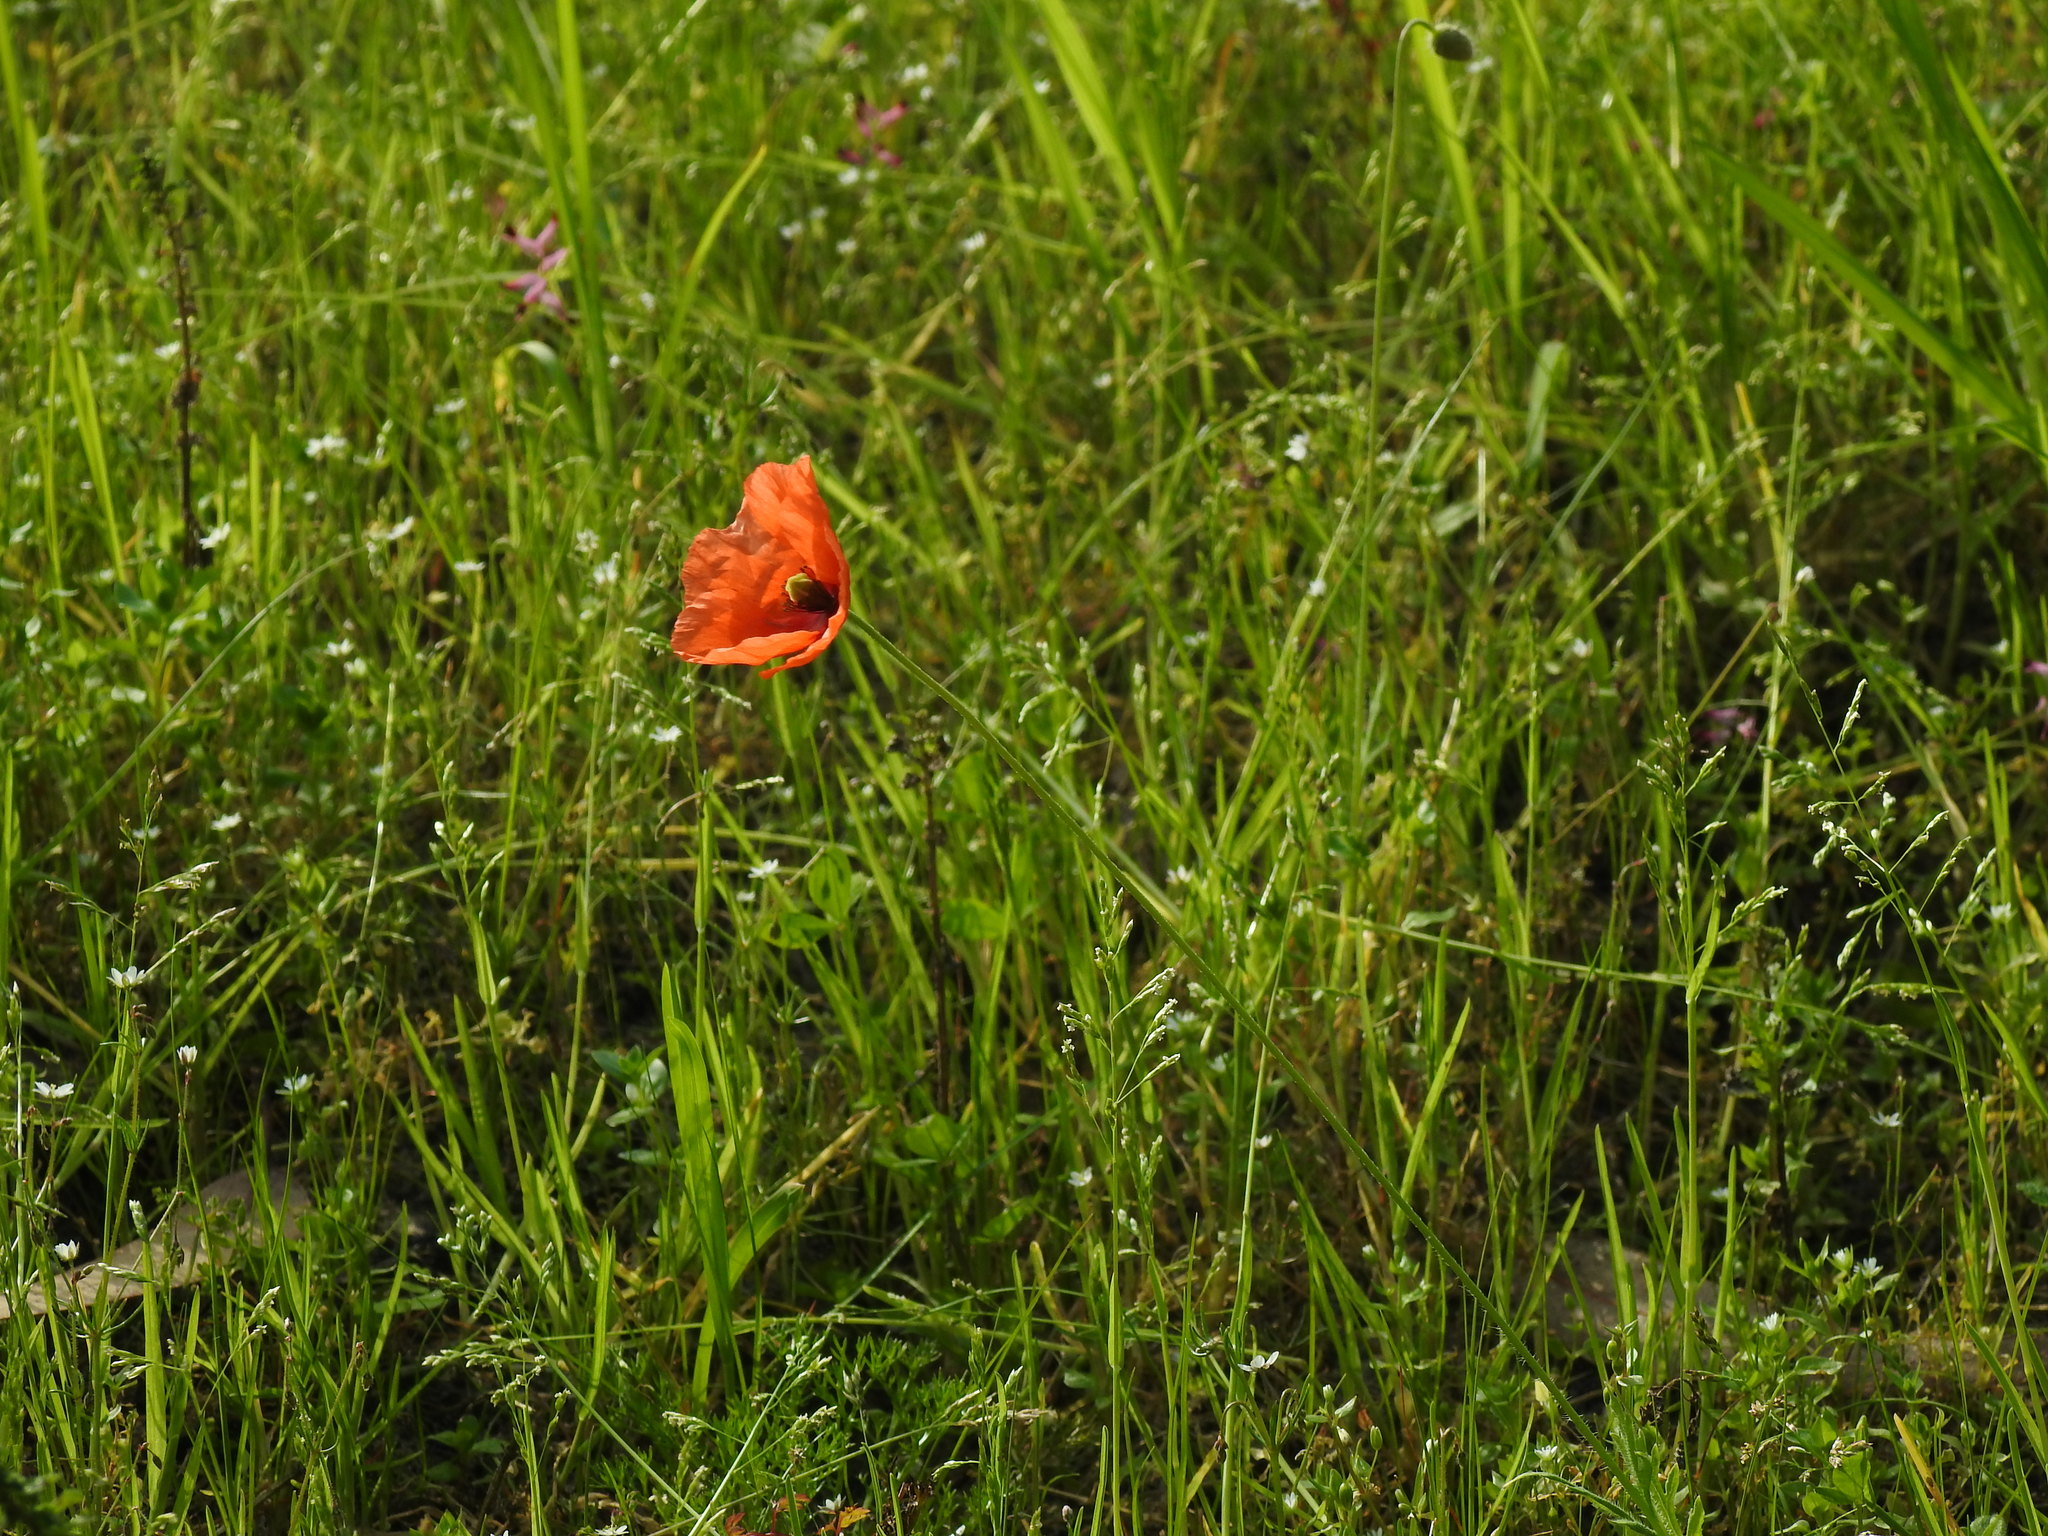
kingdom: Plantae
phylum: Tracheophyta
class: Magnoliopsida
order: Ranunculales
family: Papaveraceae
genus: Papaver
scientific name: Papaver dubium
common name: Long-headed poppy
